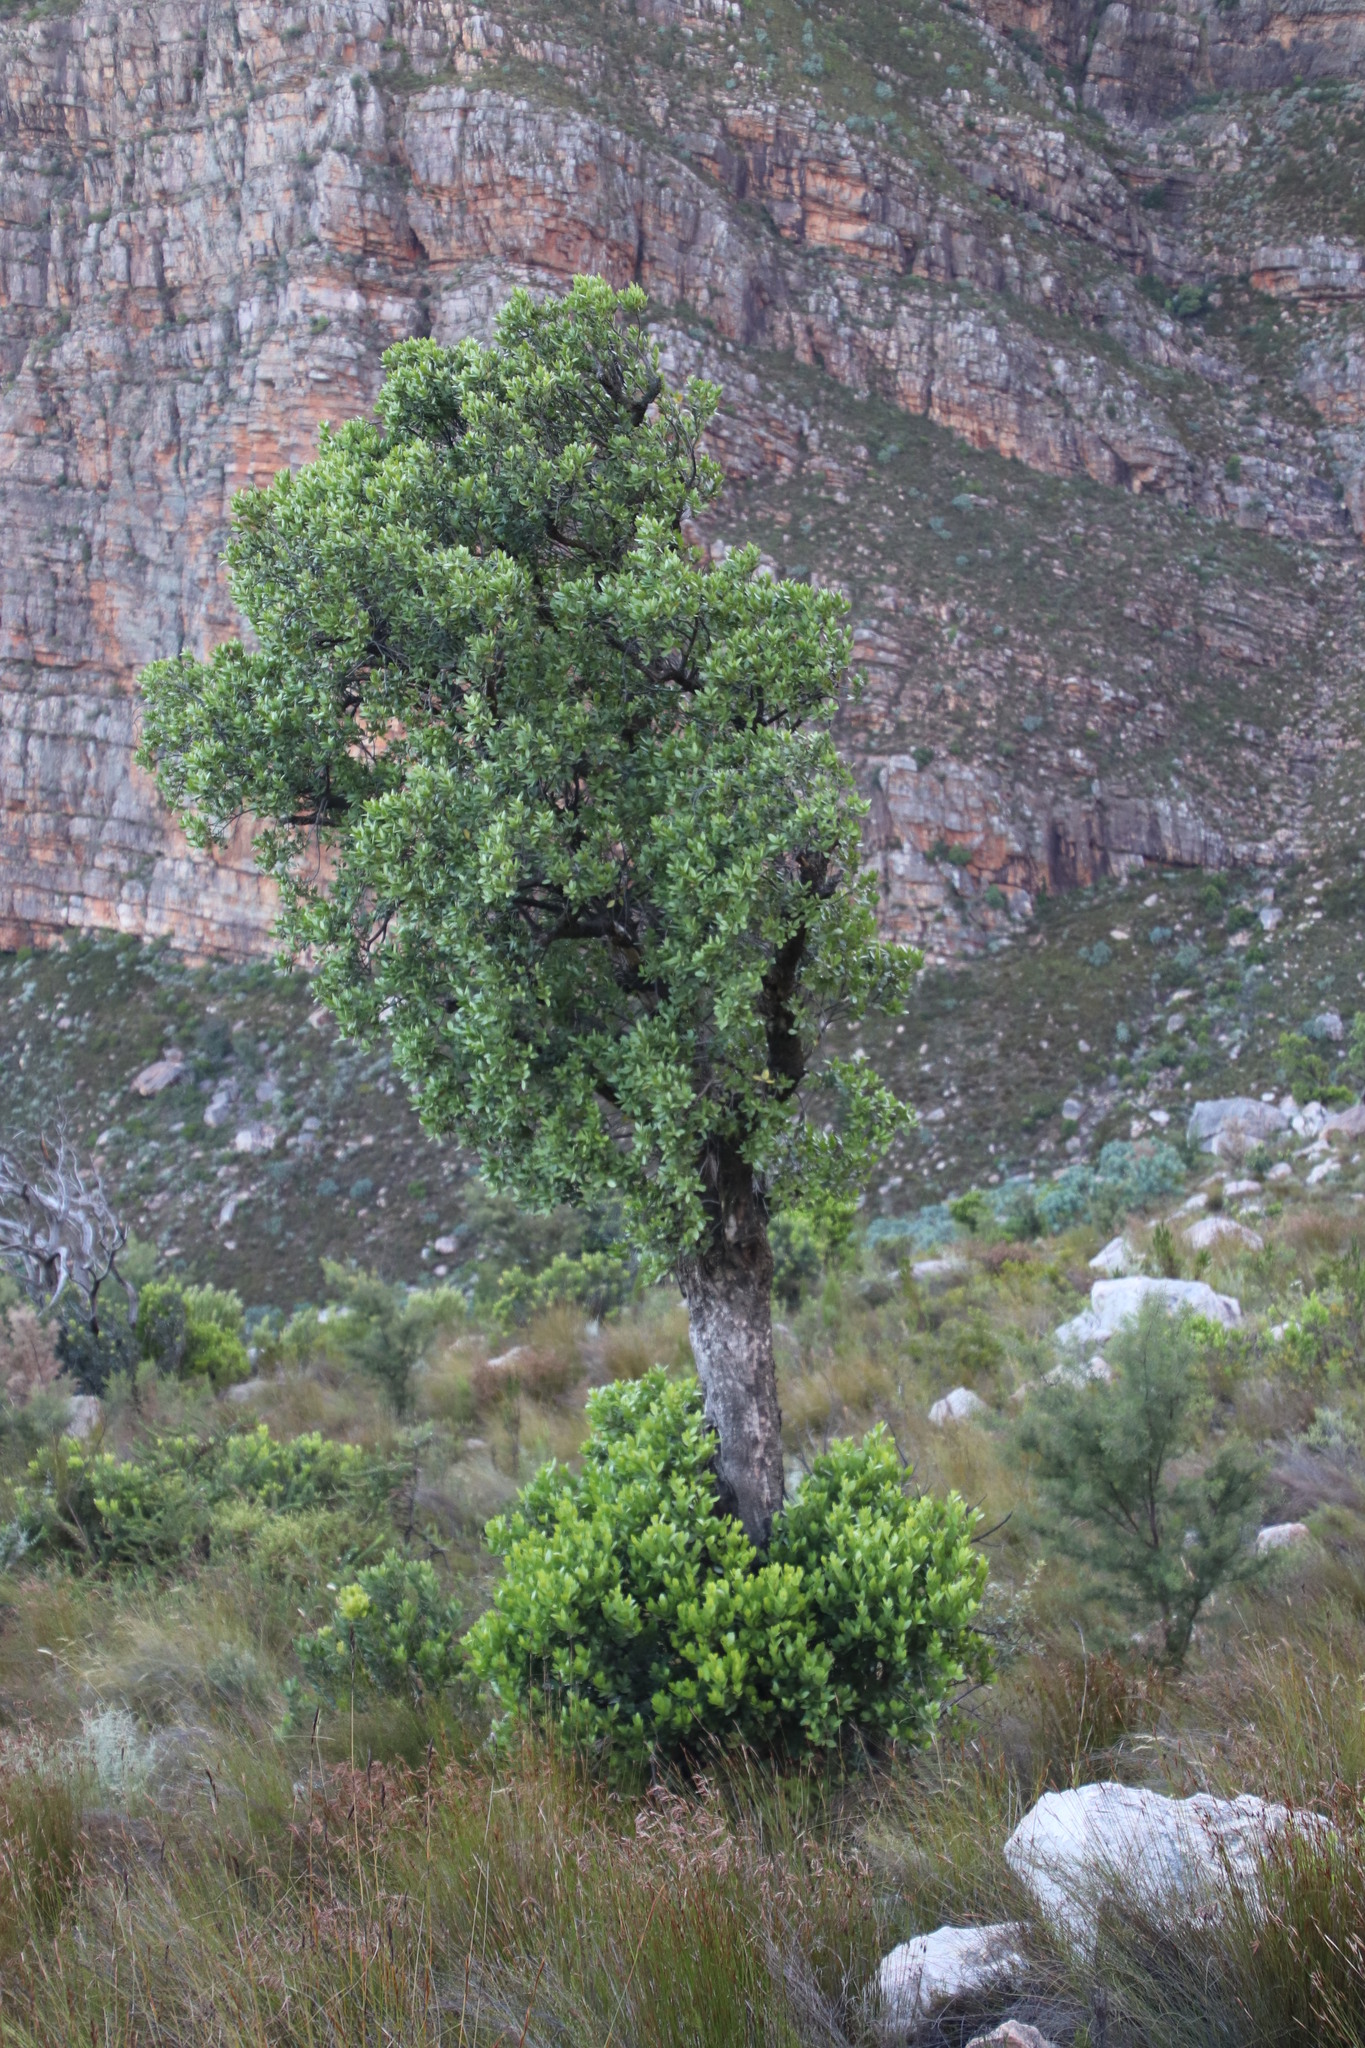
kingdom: Plantae
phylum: Tracheophyta
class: Magnoliopsida
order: Celastrales
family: Celastraceae
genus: Gymnosporia
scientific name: Gymnosporia laurina
